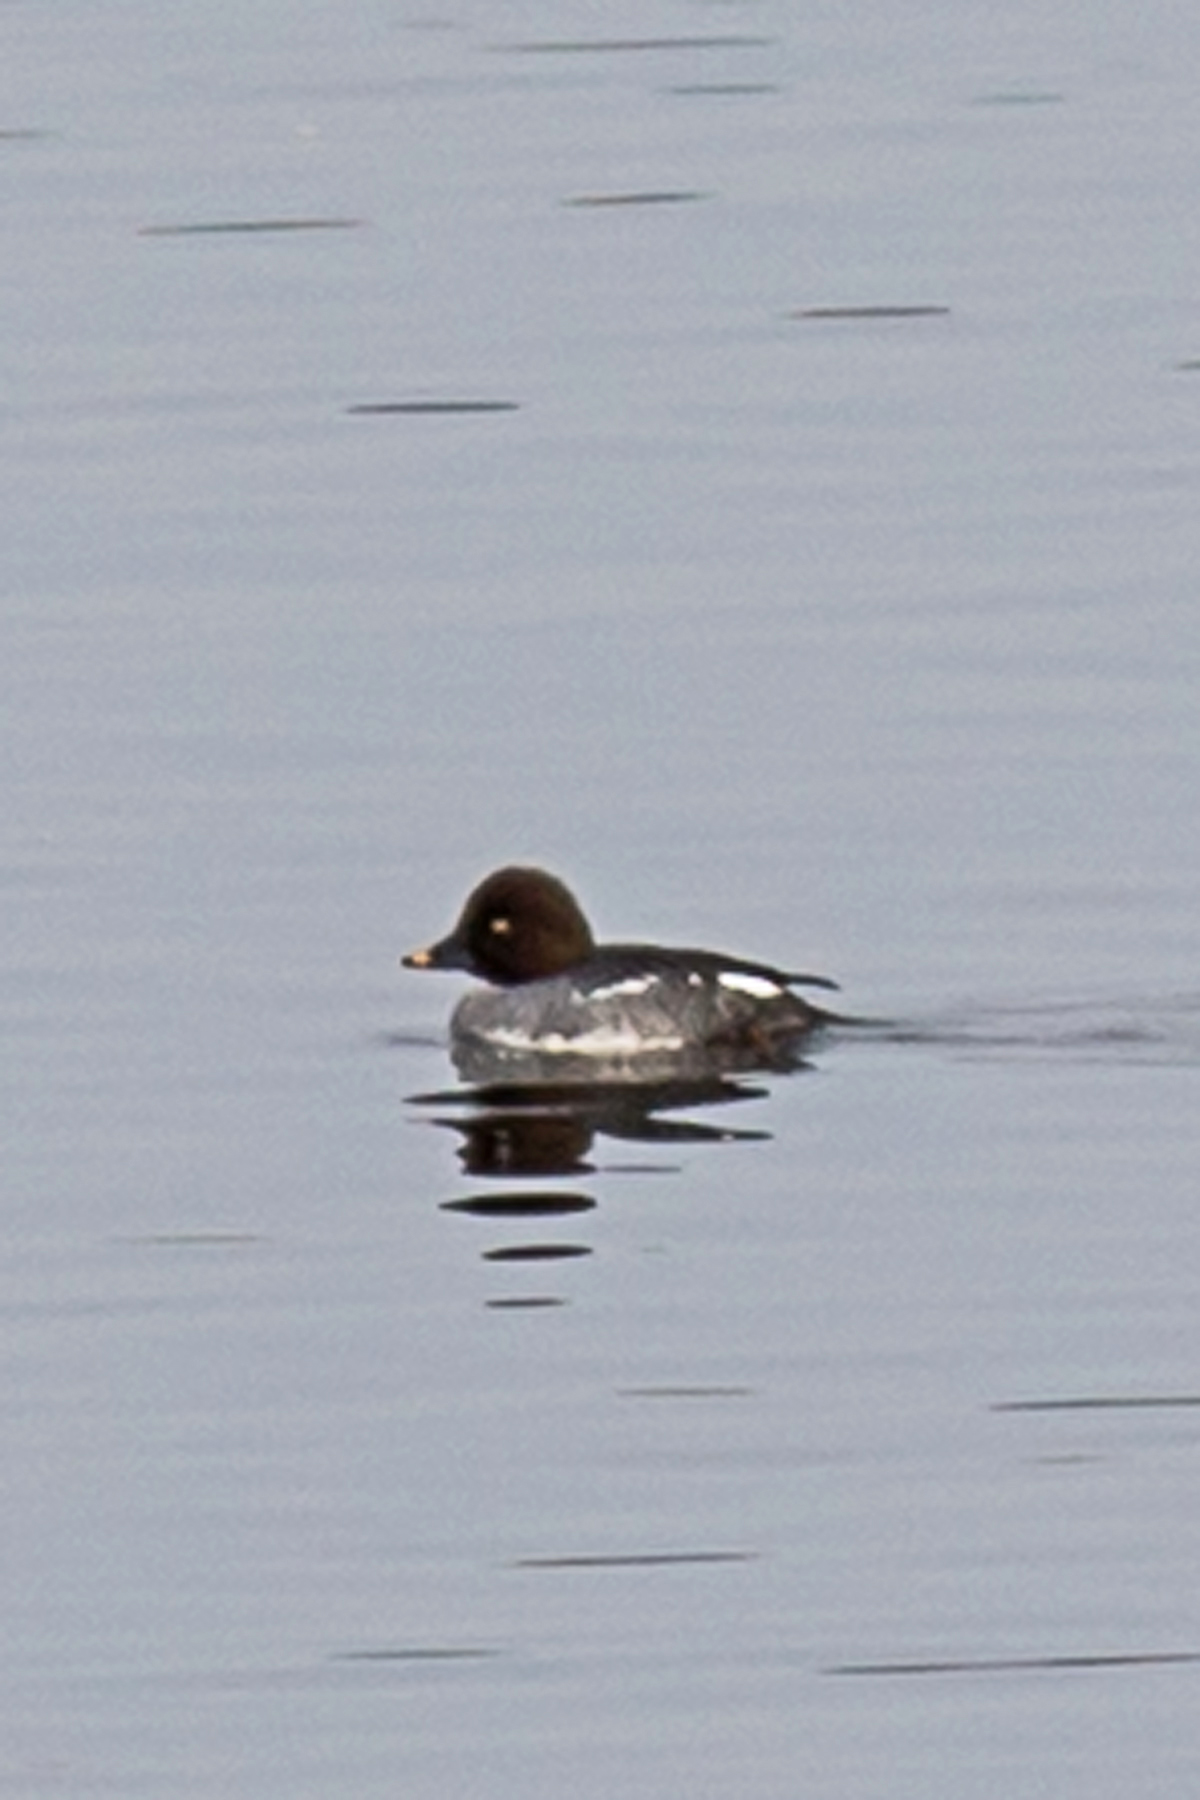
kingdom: Animalia
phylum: Chordata
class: Aves
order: Anseriformes
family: Anatidae
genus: Bucephala
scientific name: Bucephala clangula
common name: Common goldeneye
